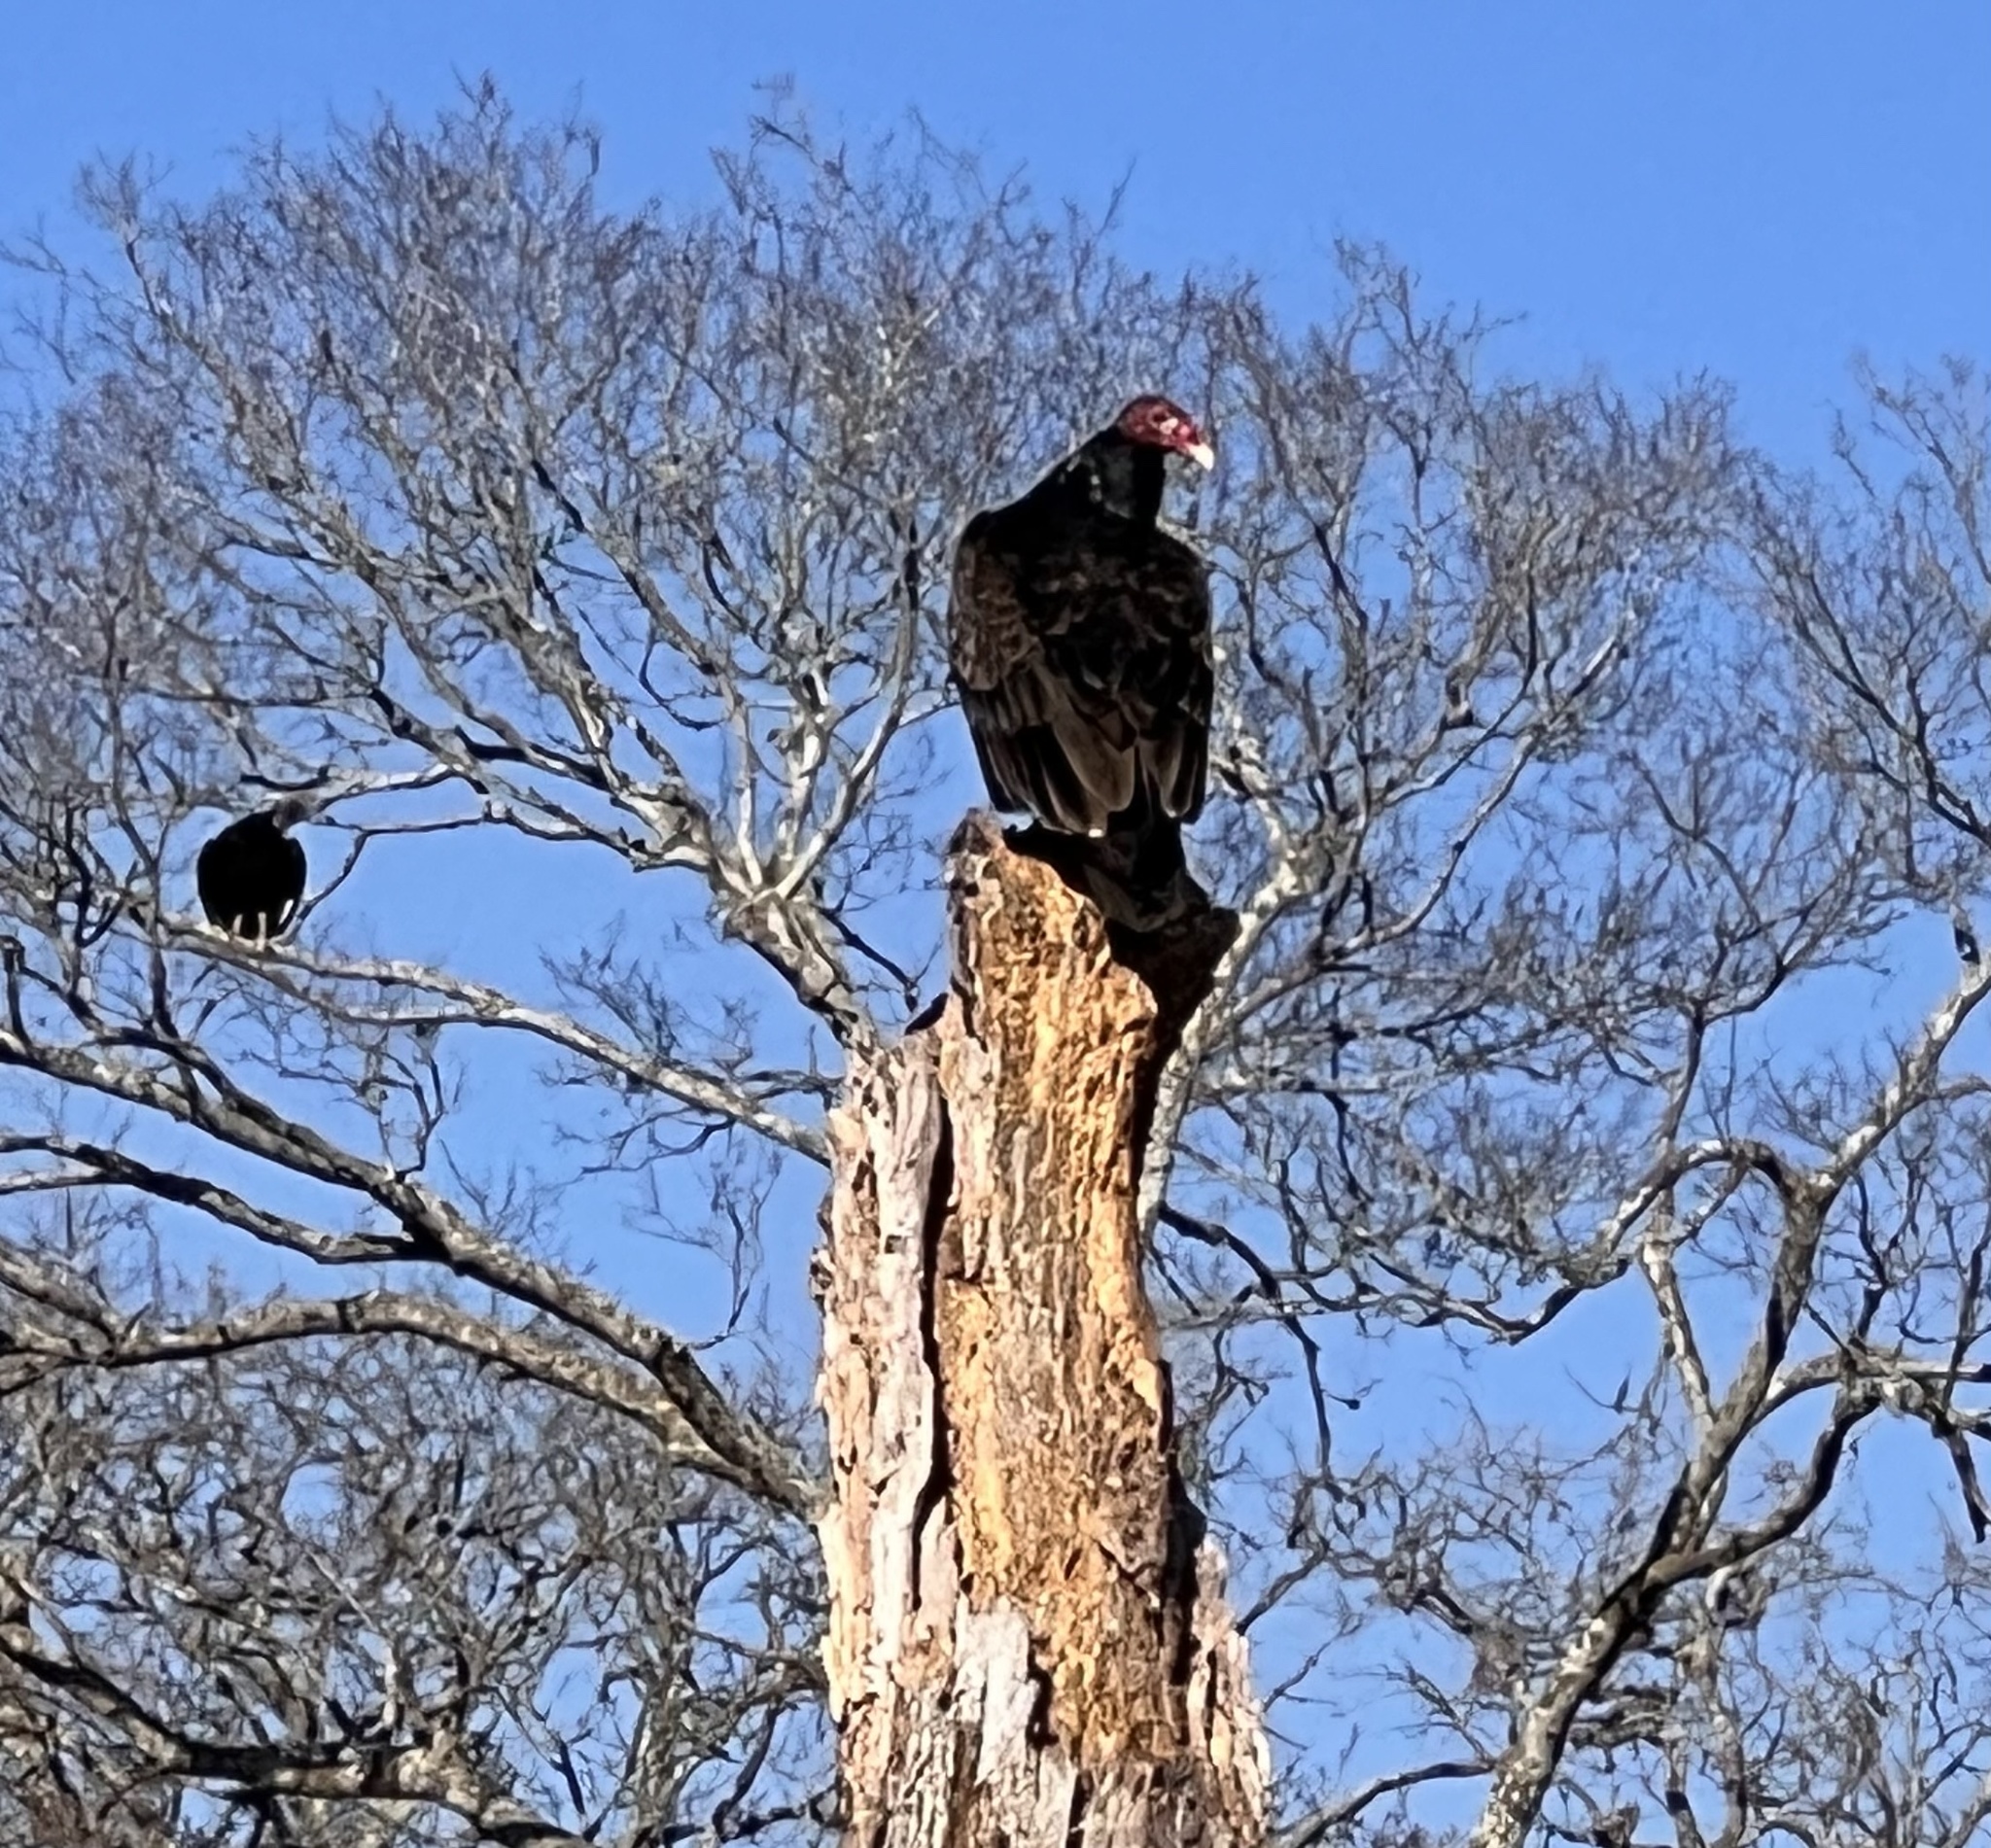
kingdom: Animalia
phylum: Chordata
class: Aves
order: Accipitriformes
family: Cathartidae
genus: Cathartes
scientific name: Cathartes aura
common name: Turkey vulture
